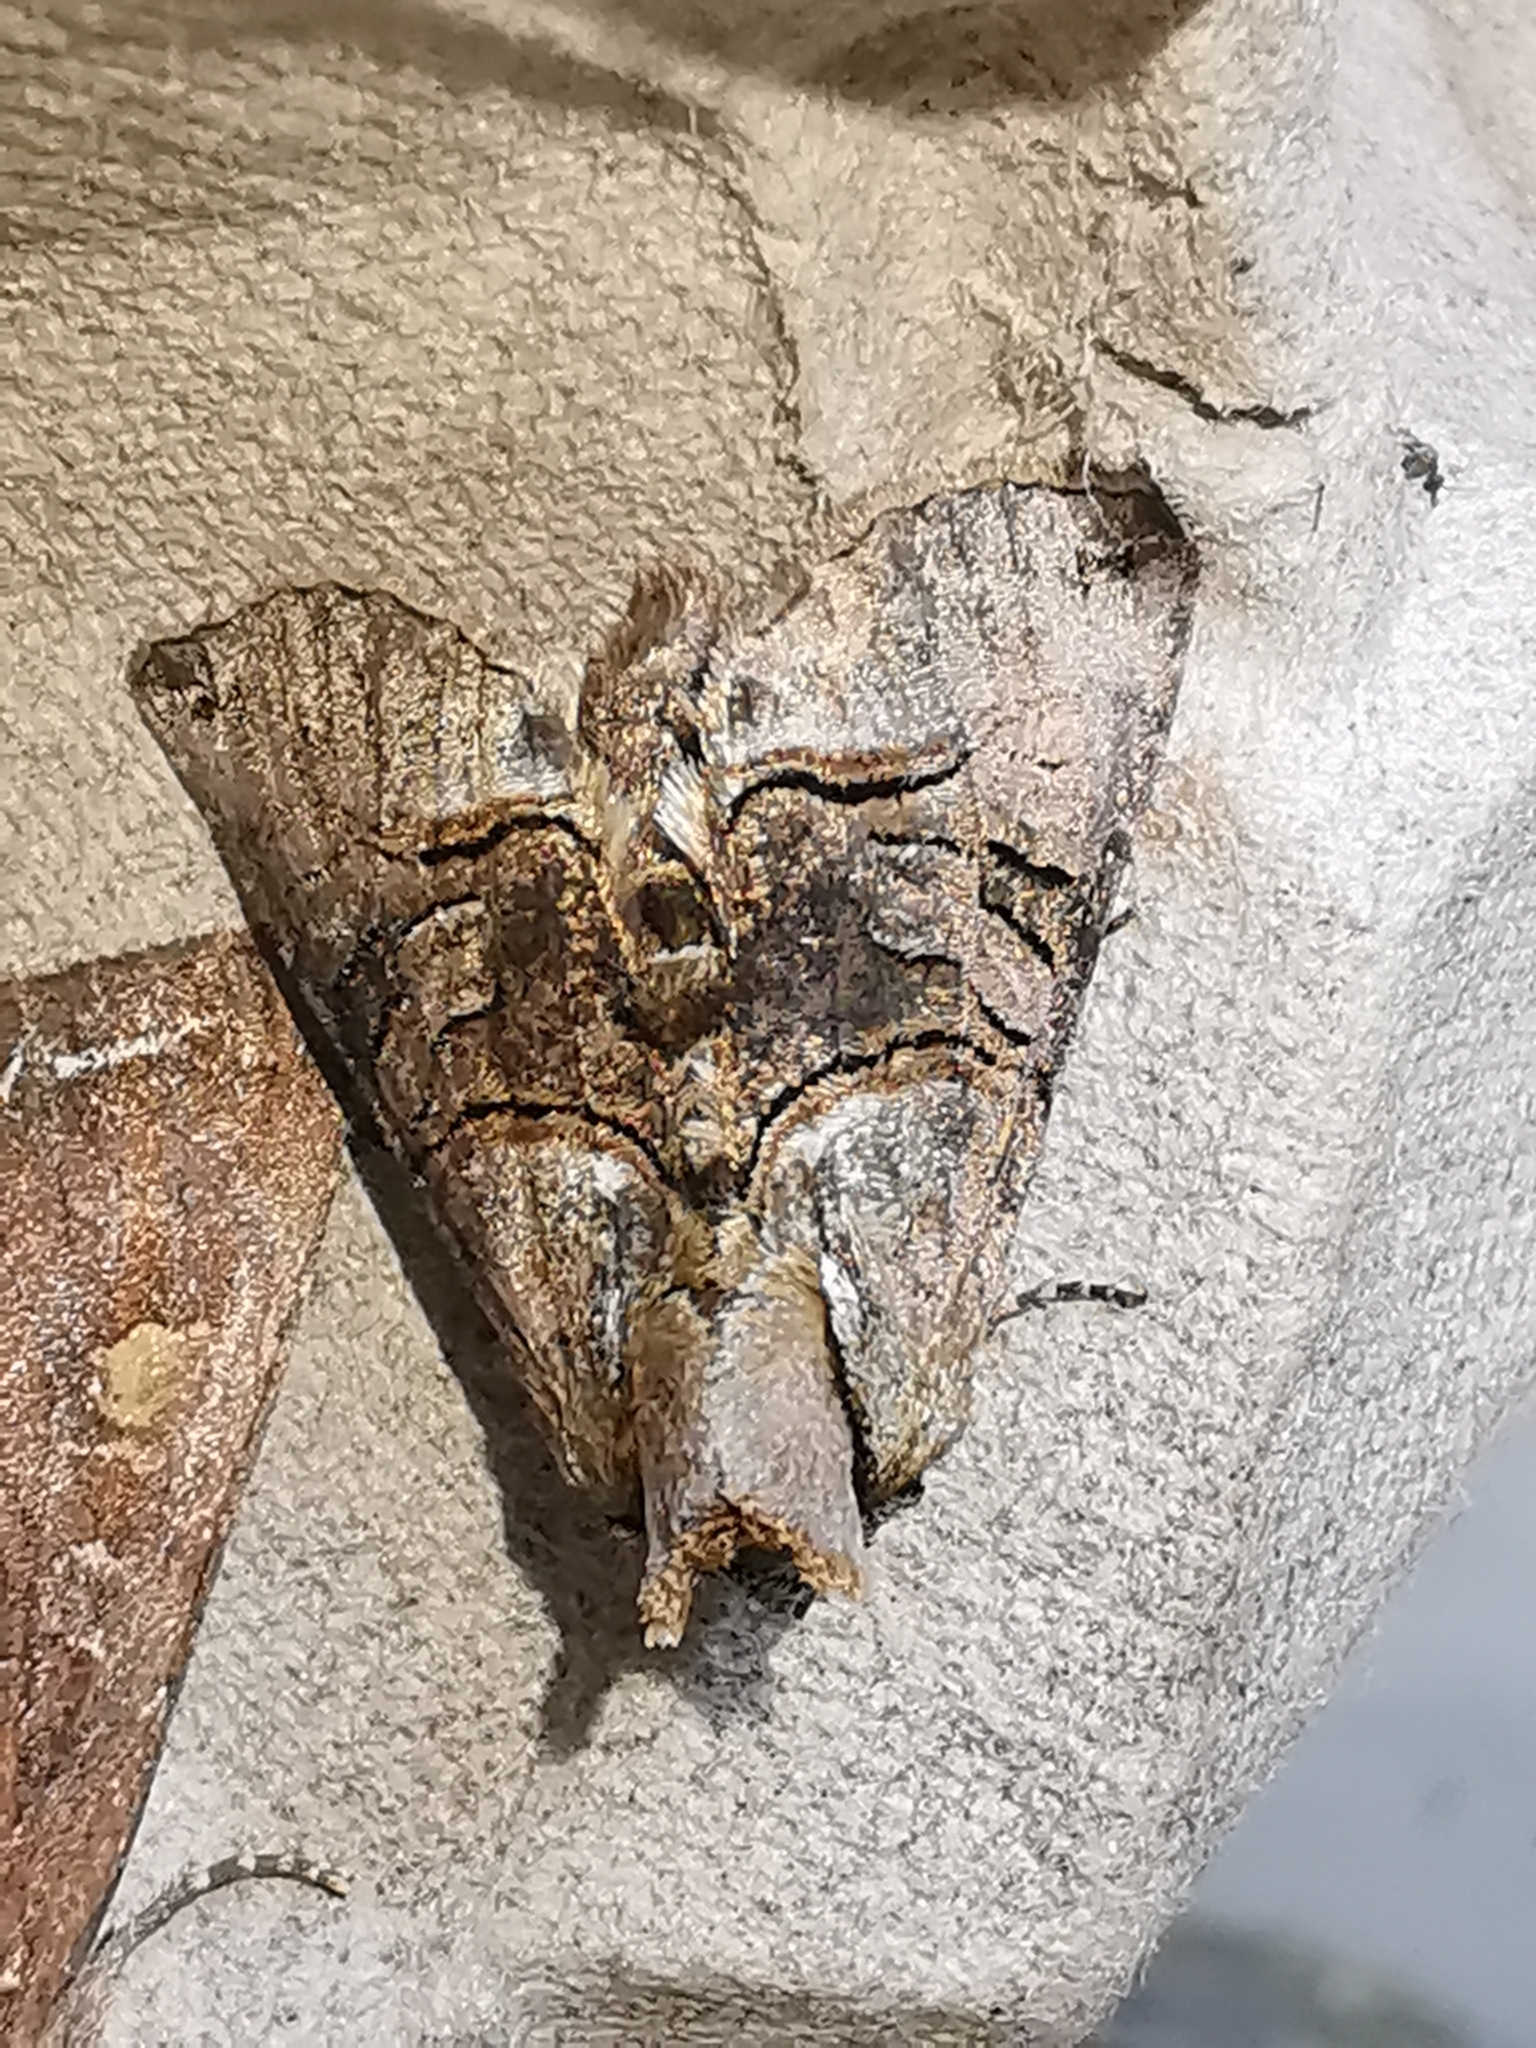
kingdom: Animalia
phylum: Arthropoda
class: Insecta
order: Lepidoptera
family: Noctuidae
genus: Abrostola
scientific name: Abrostola tripartita
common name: Spectacle
